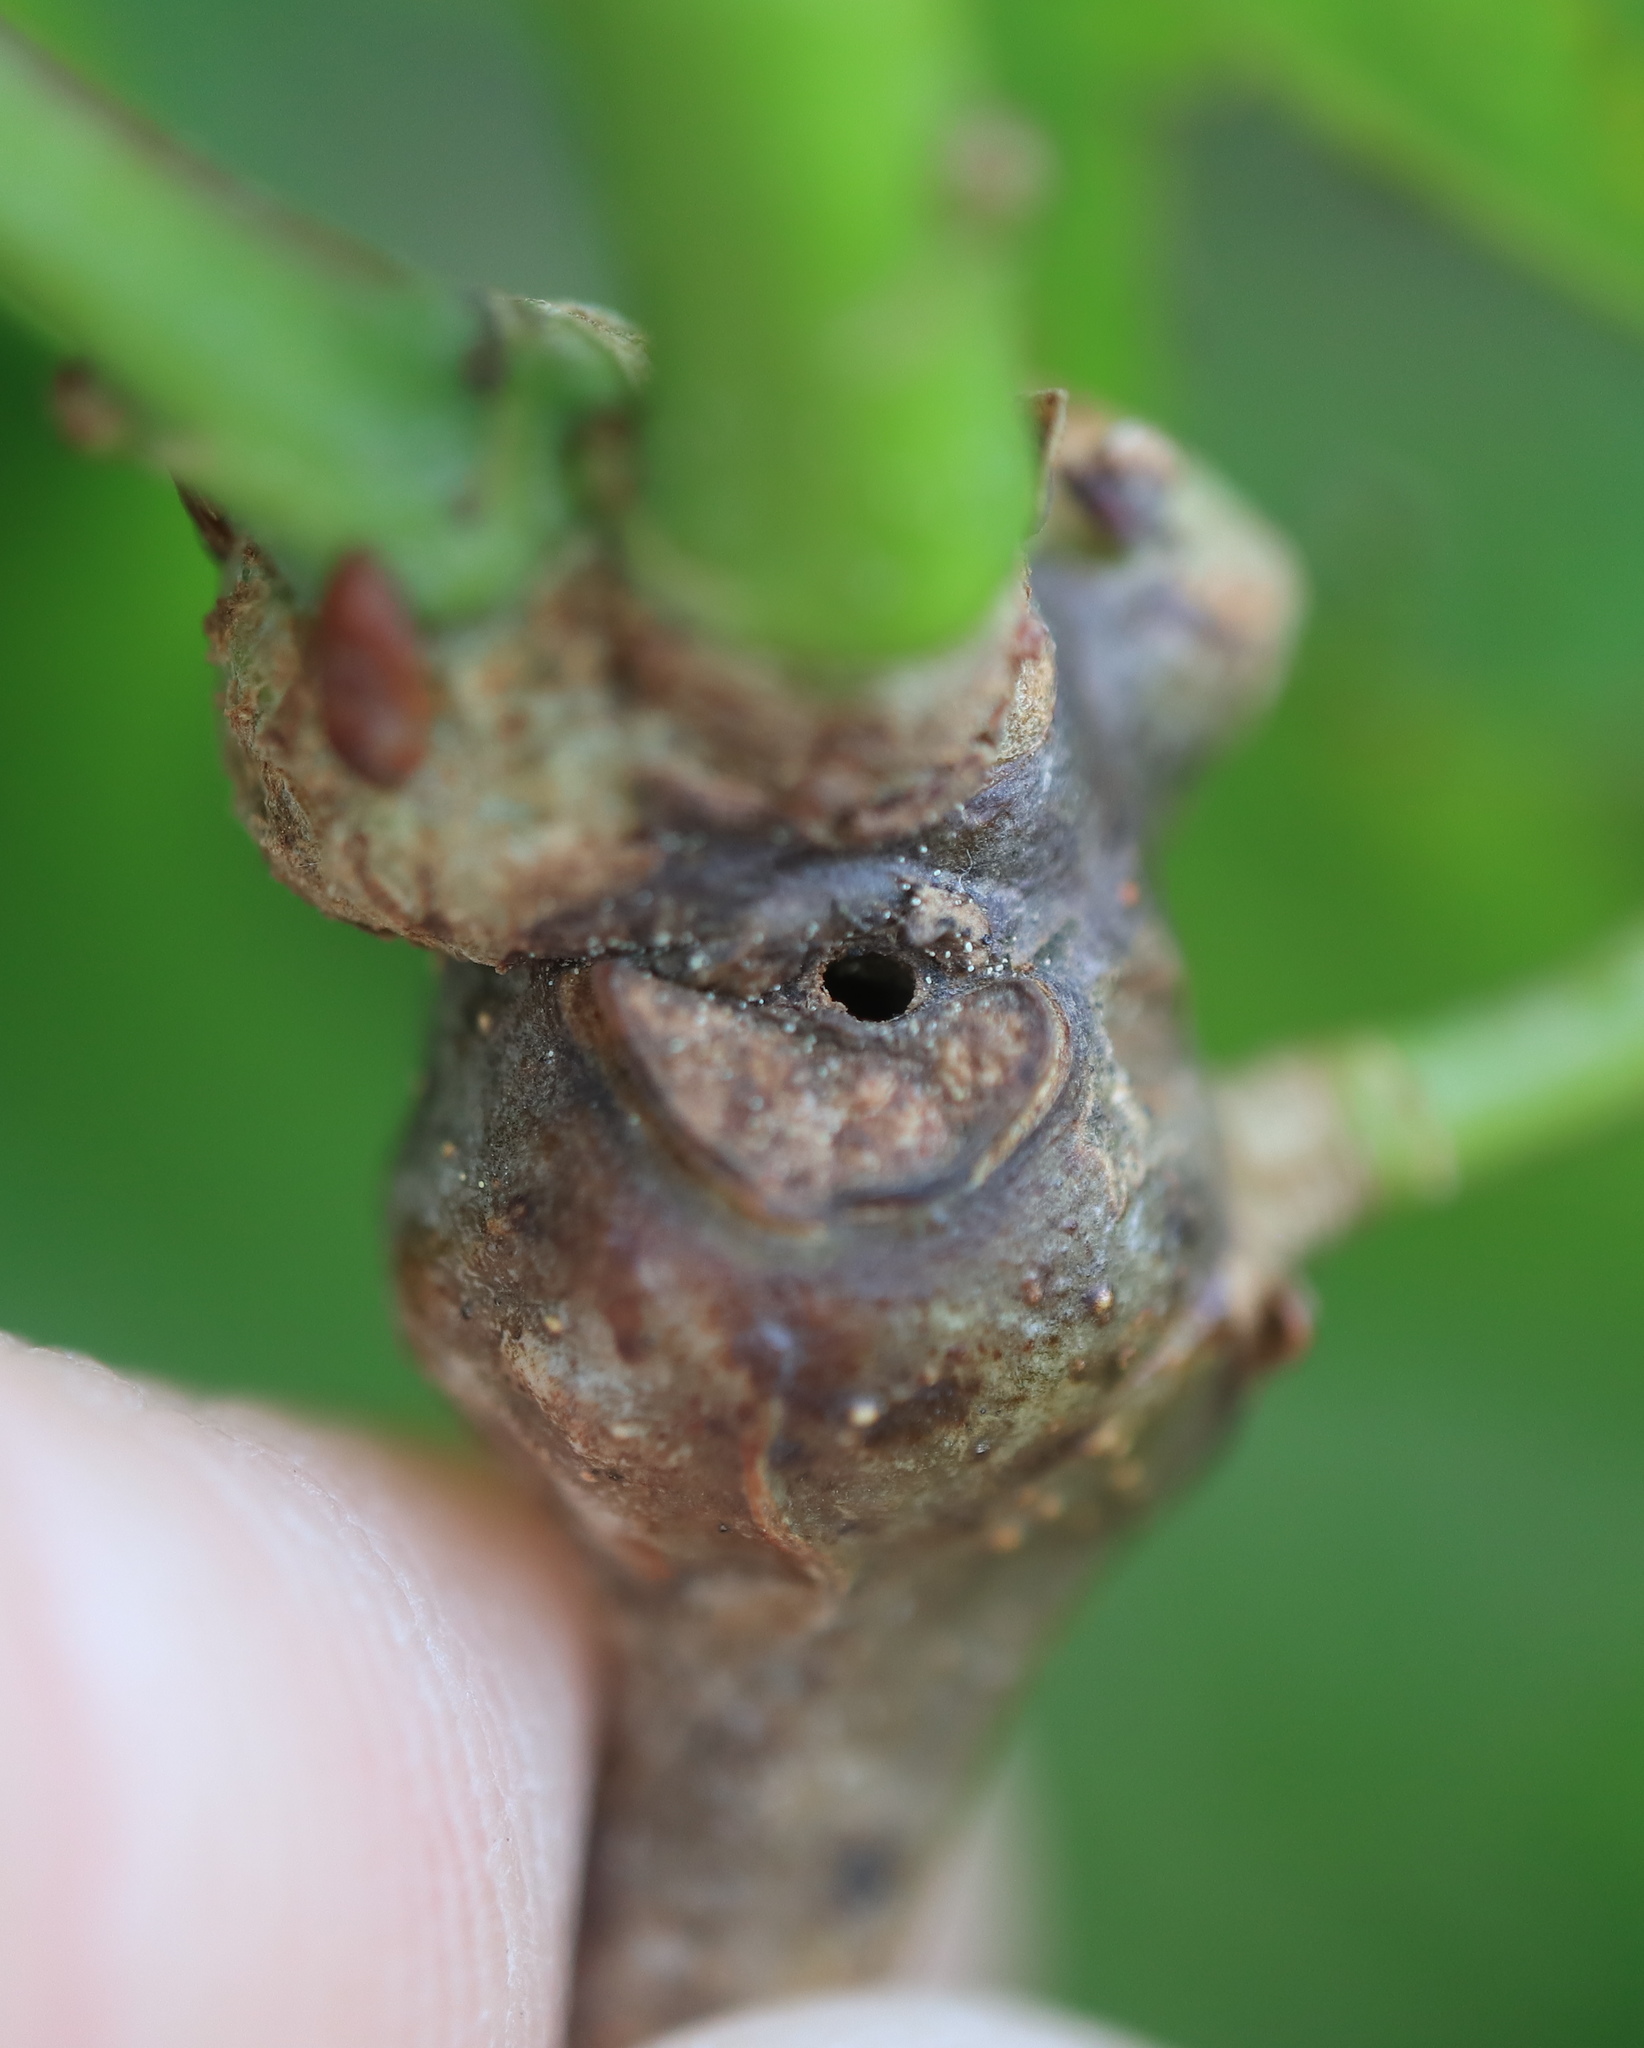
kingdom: Animalia
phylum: Arthropoda
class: Insecta
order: Hymenoptera
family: Cynipidae
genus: Neuroterus
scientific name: Neuroterus
